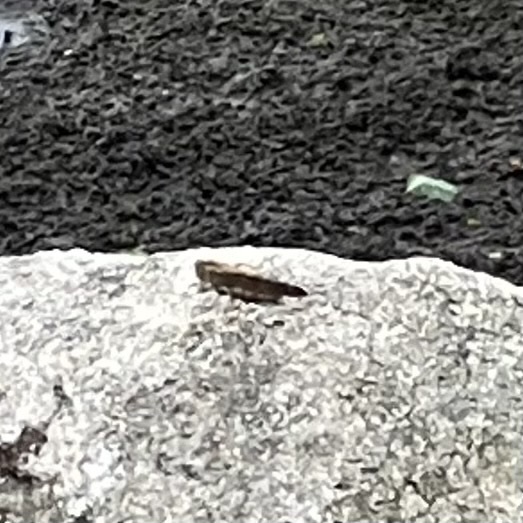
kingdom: Animalia
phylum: Arthropoda
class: Insecta
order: Orthoptera
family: Acrididae
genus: Dissosteira
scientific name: Dissosteira carolina
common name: Carolina grasshopper
